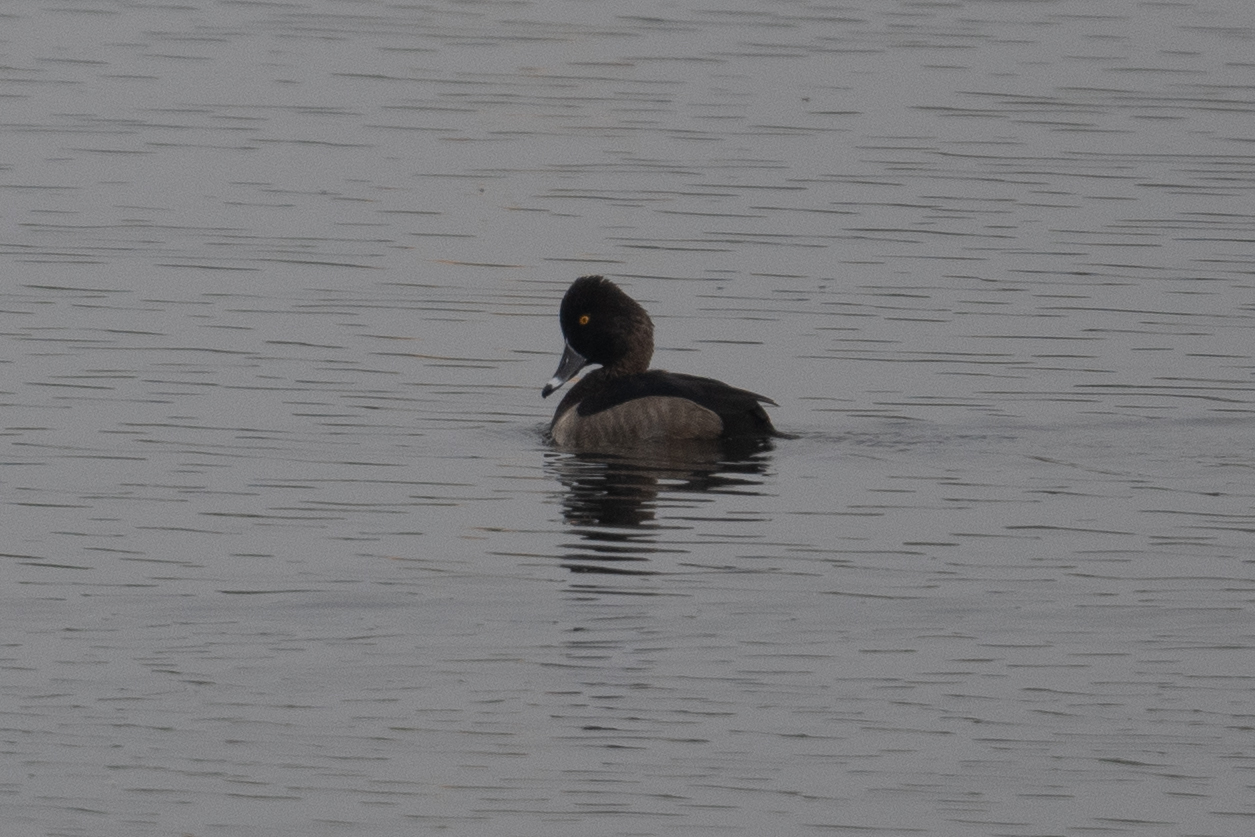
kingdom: Animalia
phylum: Chordata
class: Aves
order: Anseriformes
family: Anatidae
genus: Aythya
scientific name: Aythya collaris
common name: Ring-necked duck
